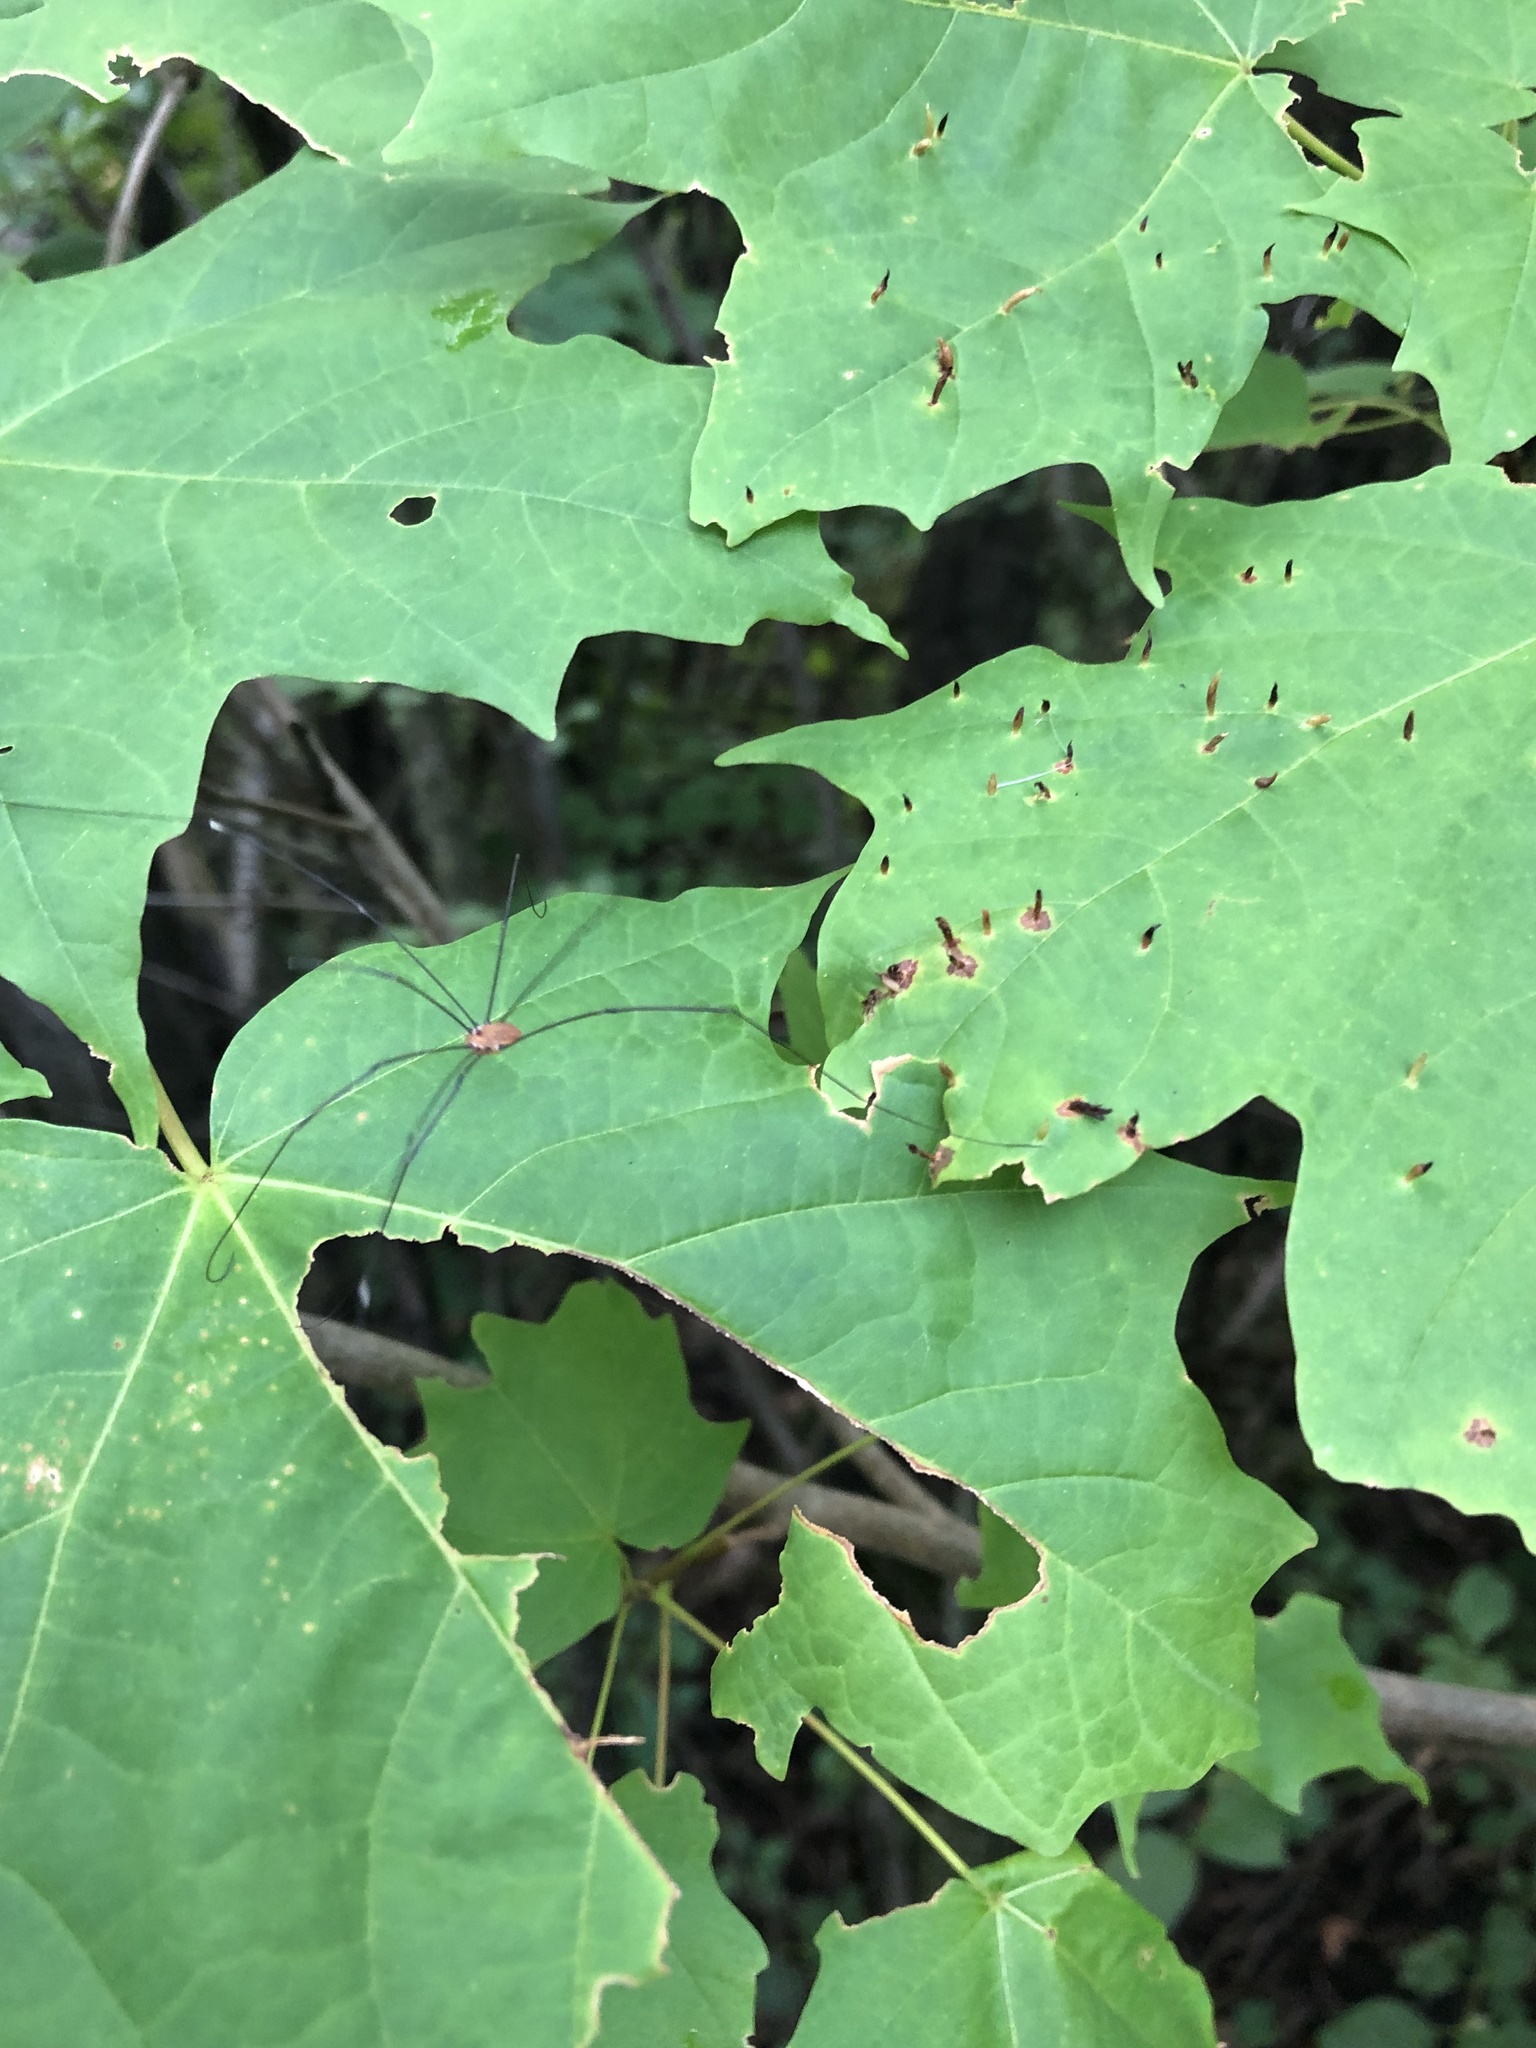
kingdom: Animalia
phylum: Arthropoda
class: Arachnida
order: Trombidiformes
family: Eriophyidae
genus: Vasates
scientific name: Vasates aceriscrumena
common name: Maple spindle gall mite
